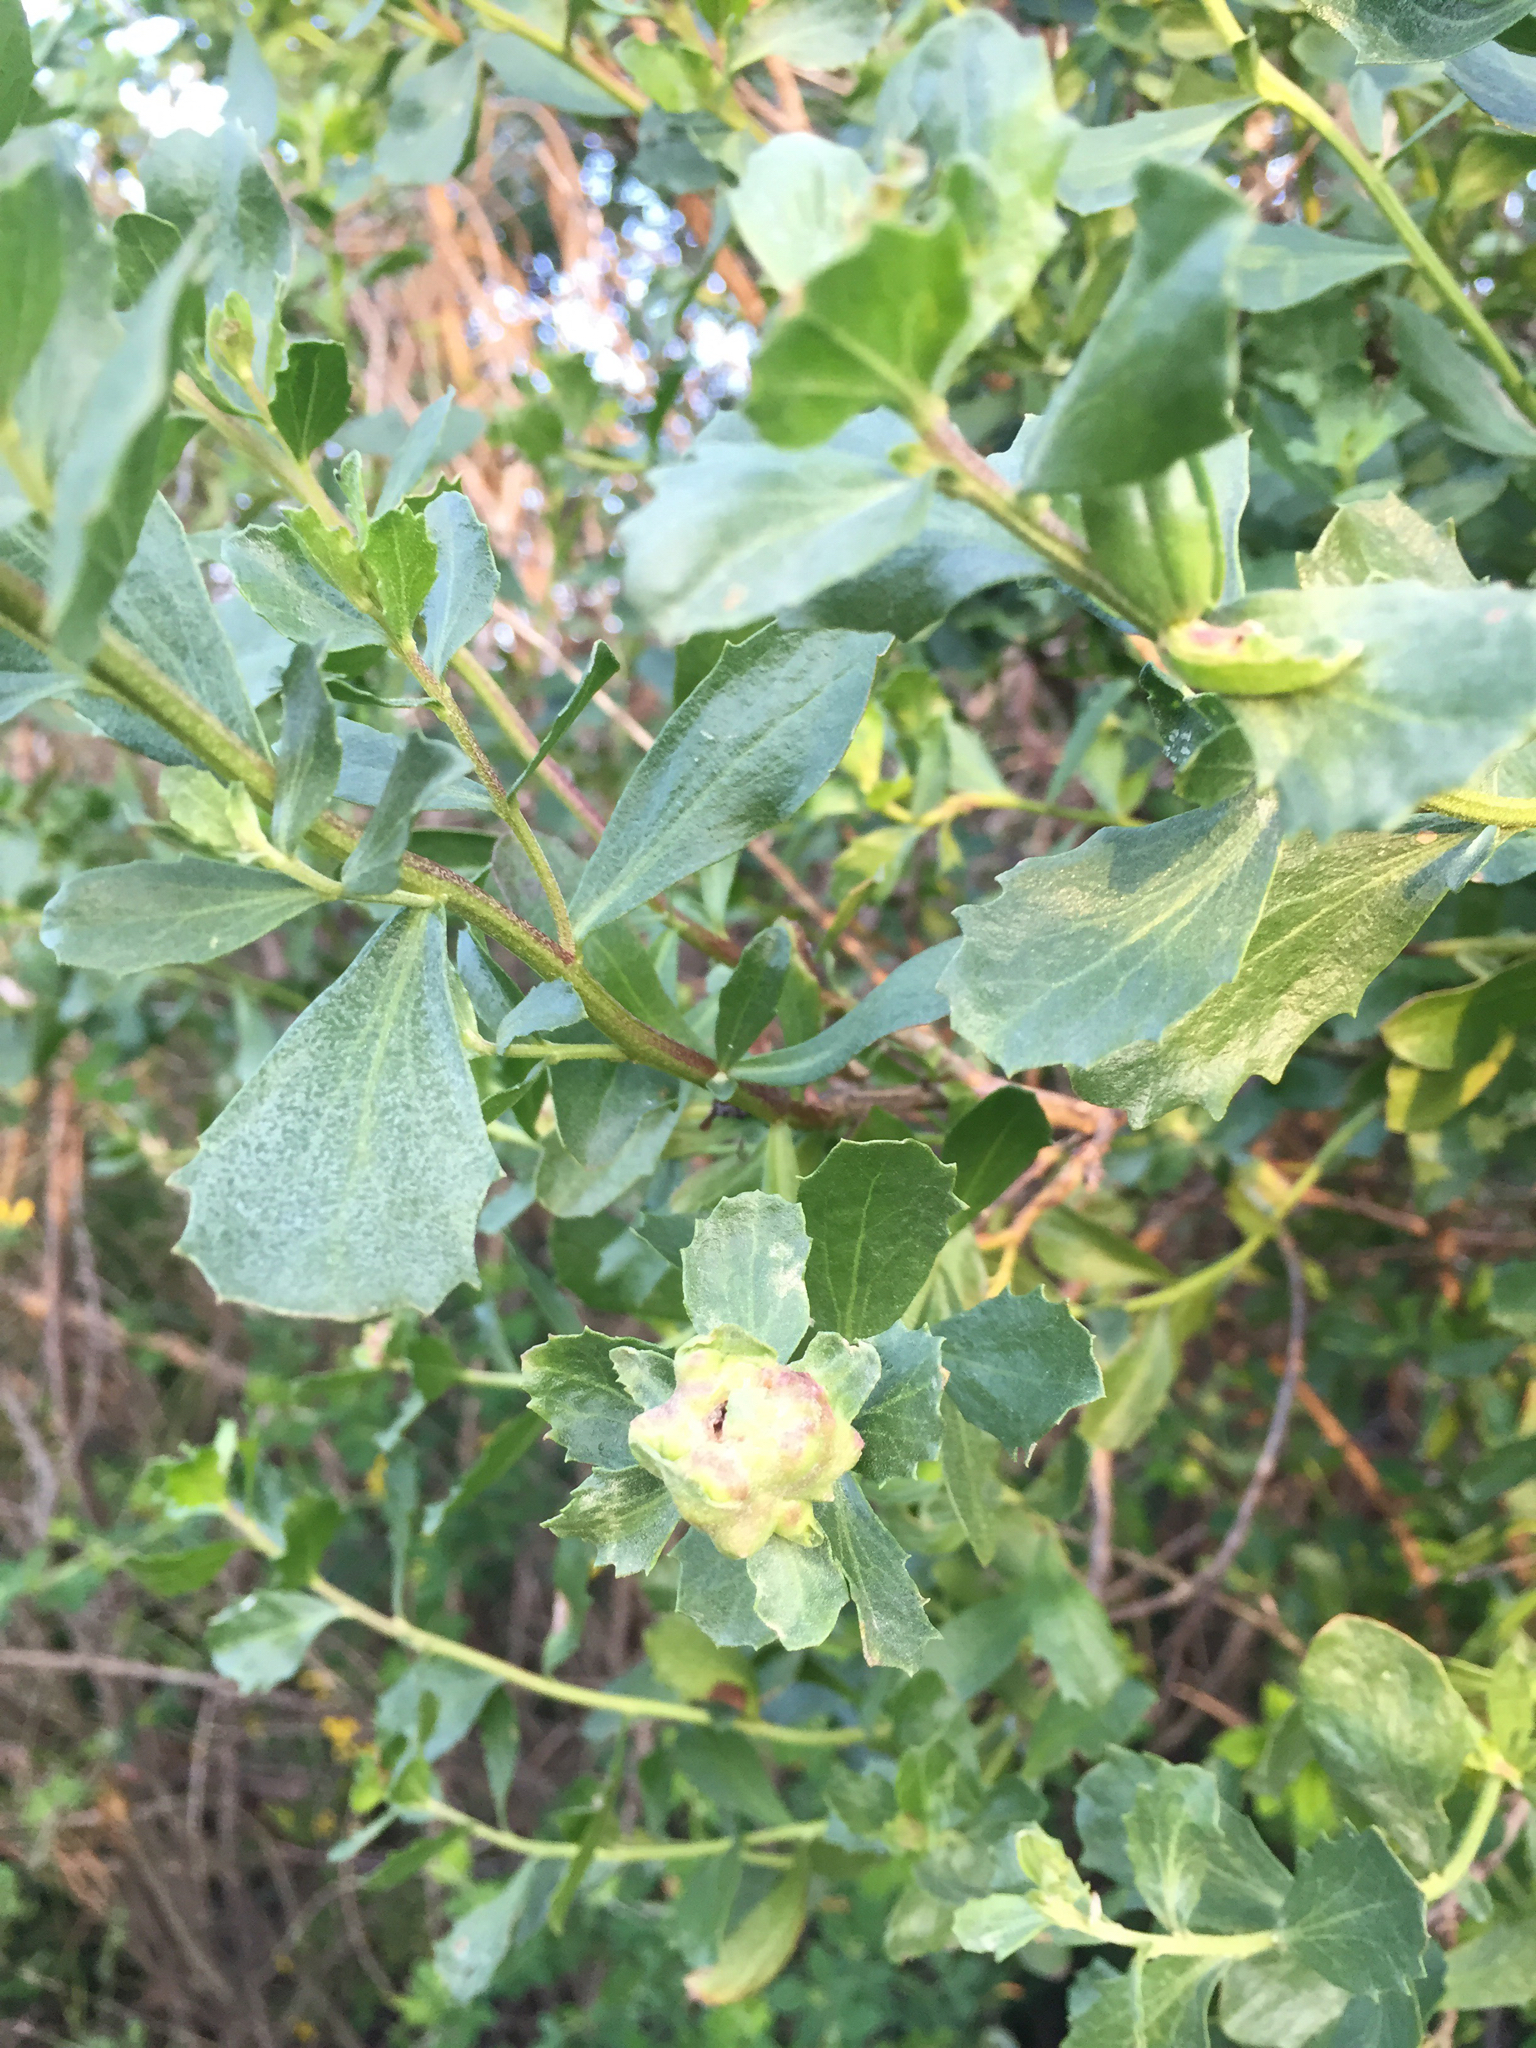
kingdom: Plantae
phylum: Tracheophyta
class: Magnoliopsida
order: Asterales
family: Asteraceae
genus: Baccharis
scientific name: Baccharis pilularis
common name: Coyotebrush
